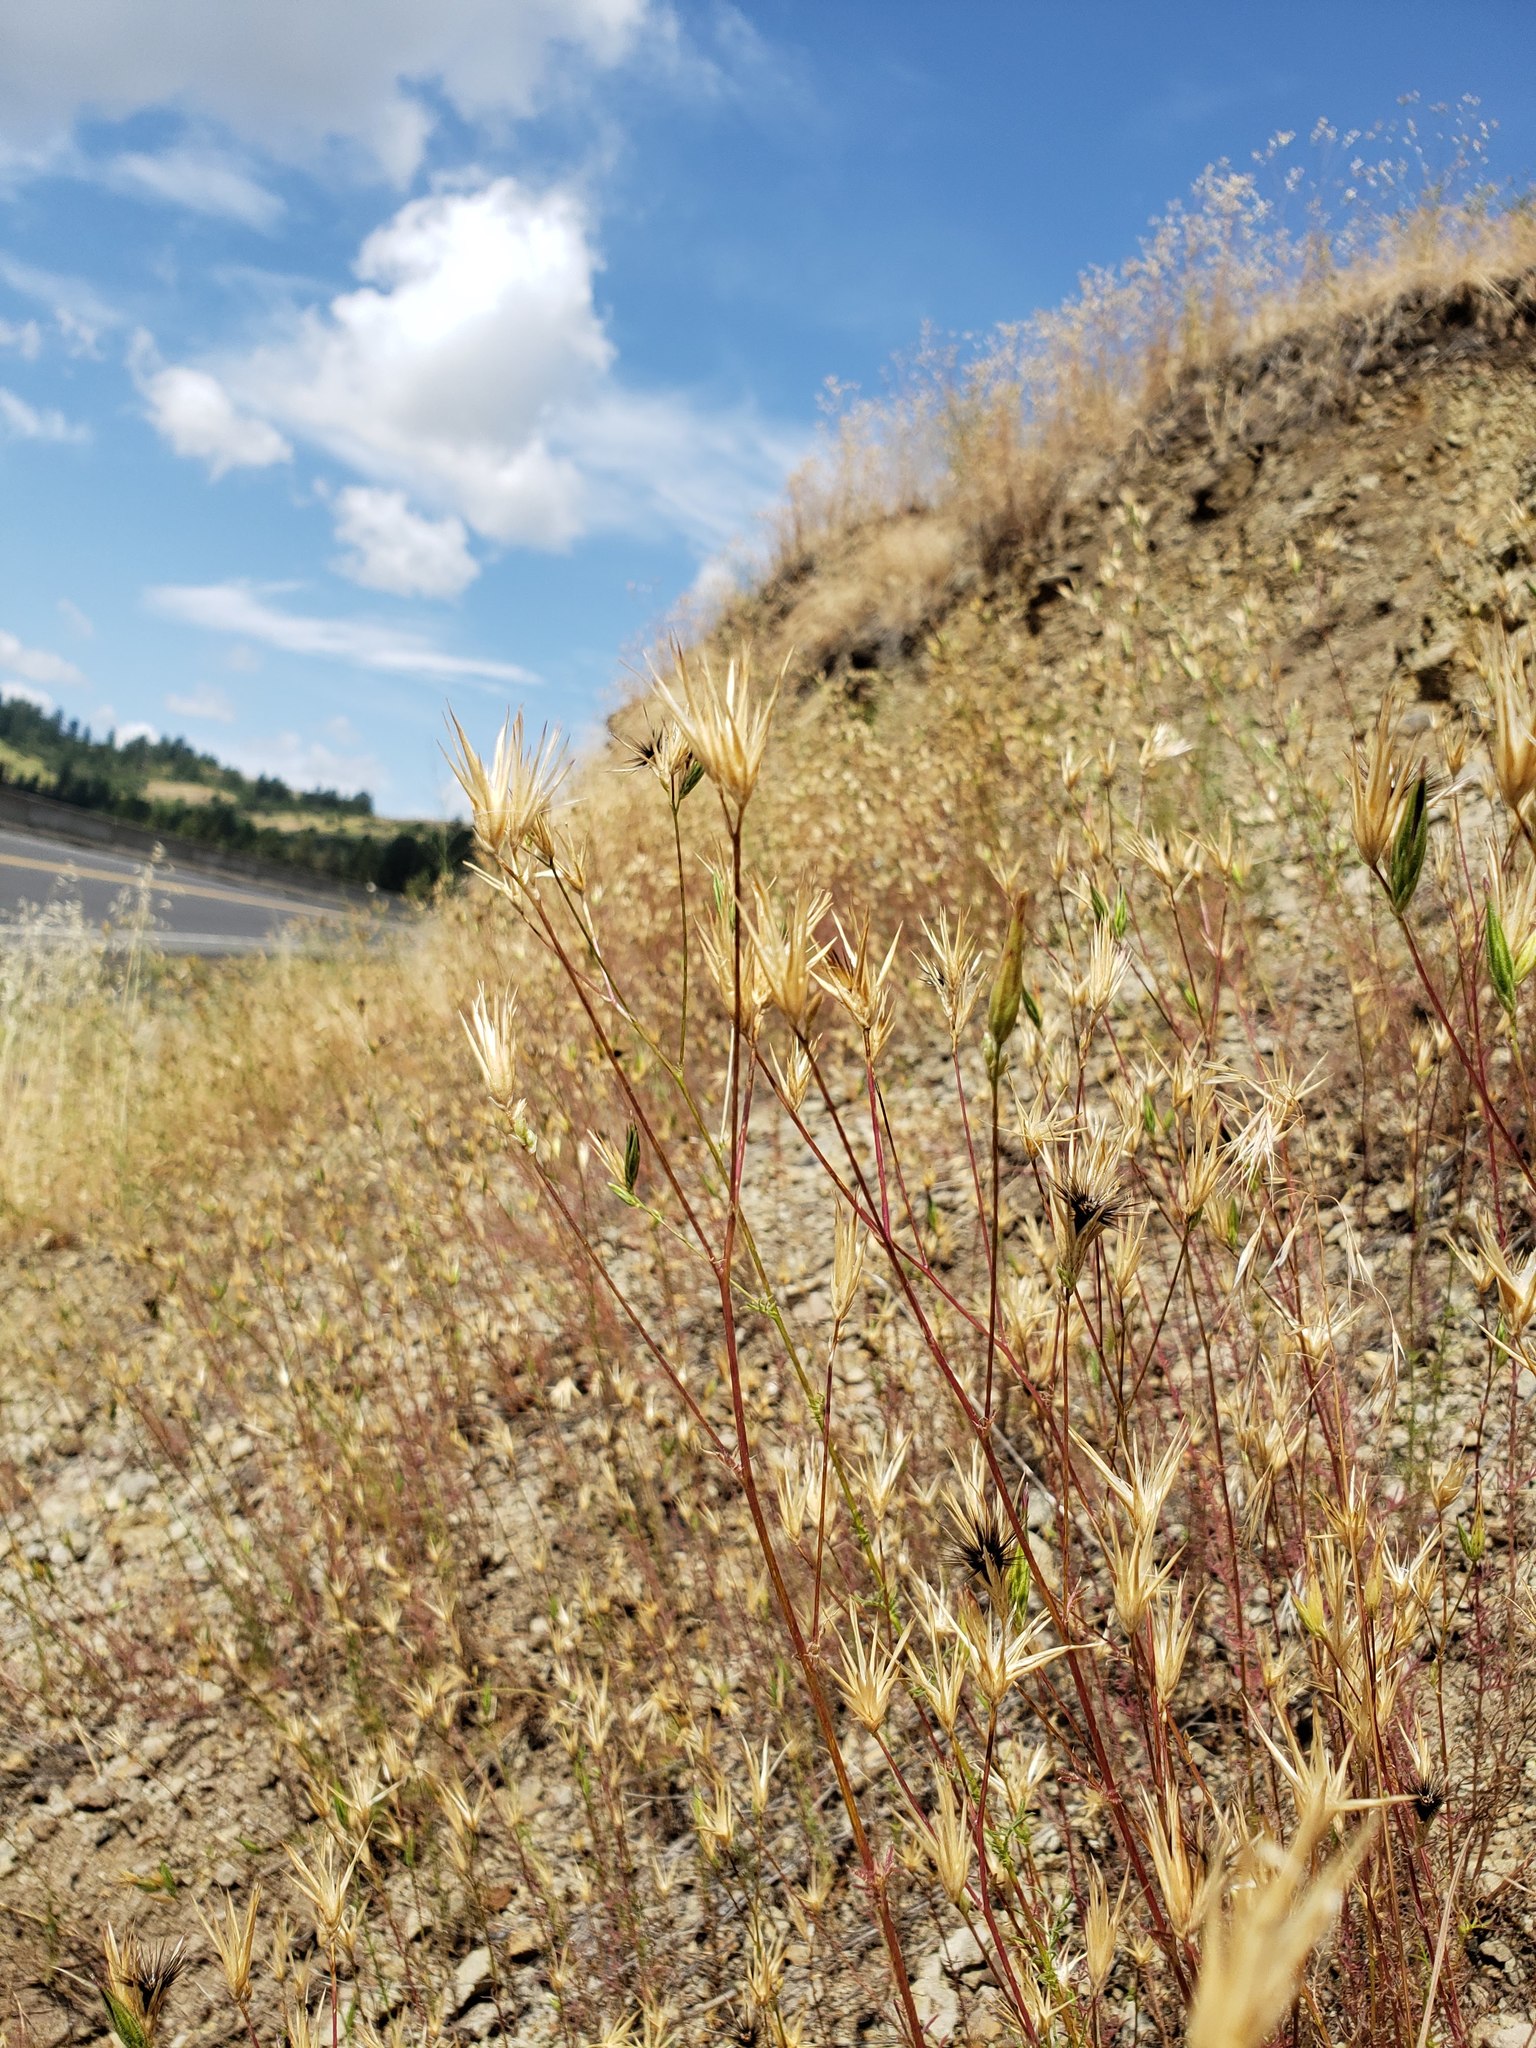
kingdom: Plantae
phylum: Tracheophyta
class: Magnoliopsida
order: Asterales
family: Asteraceae
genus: Crupina
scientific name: Crupina vulgaris
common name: Common crupina
